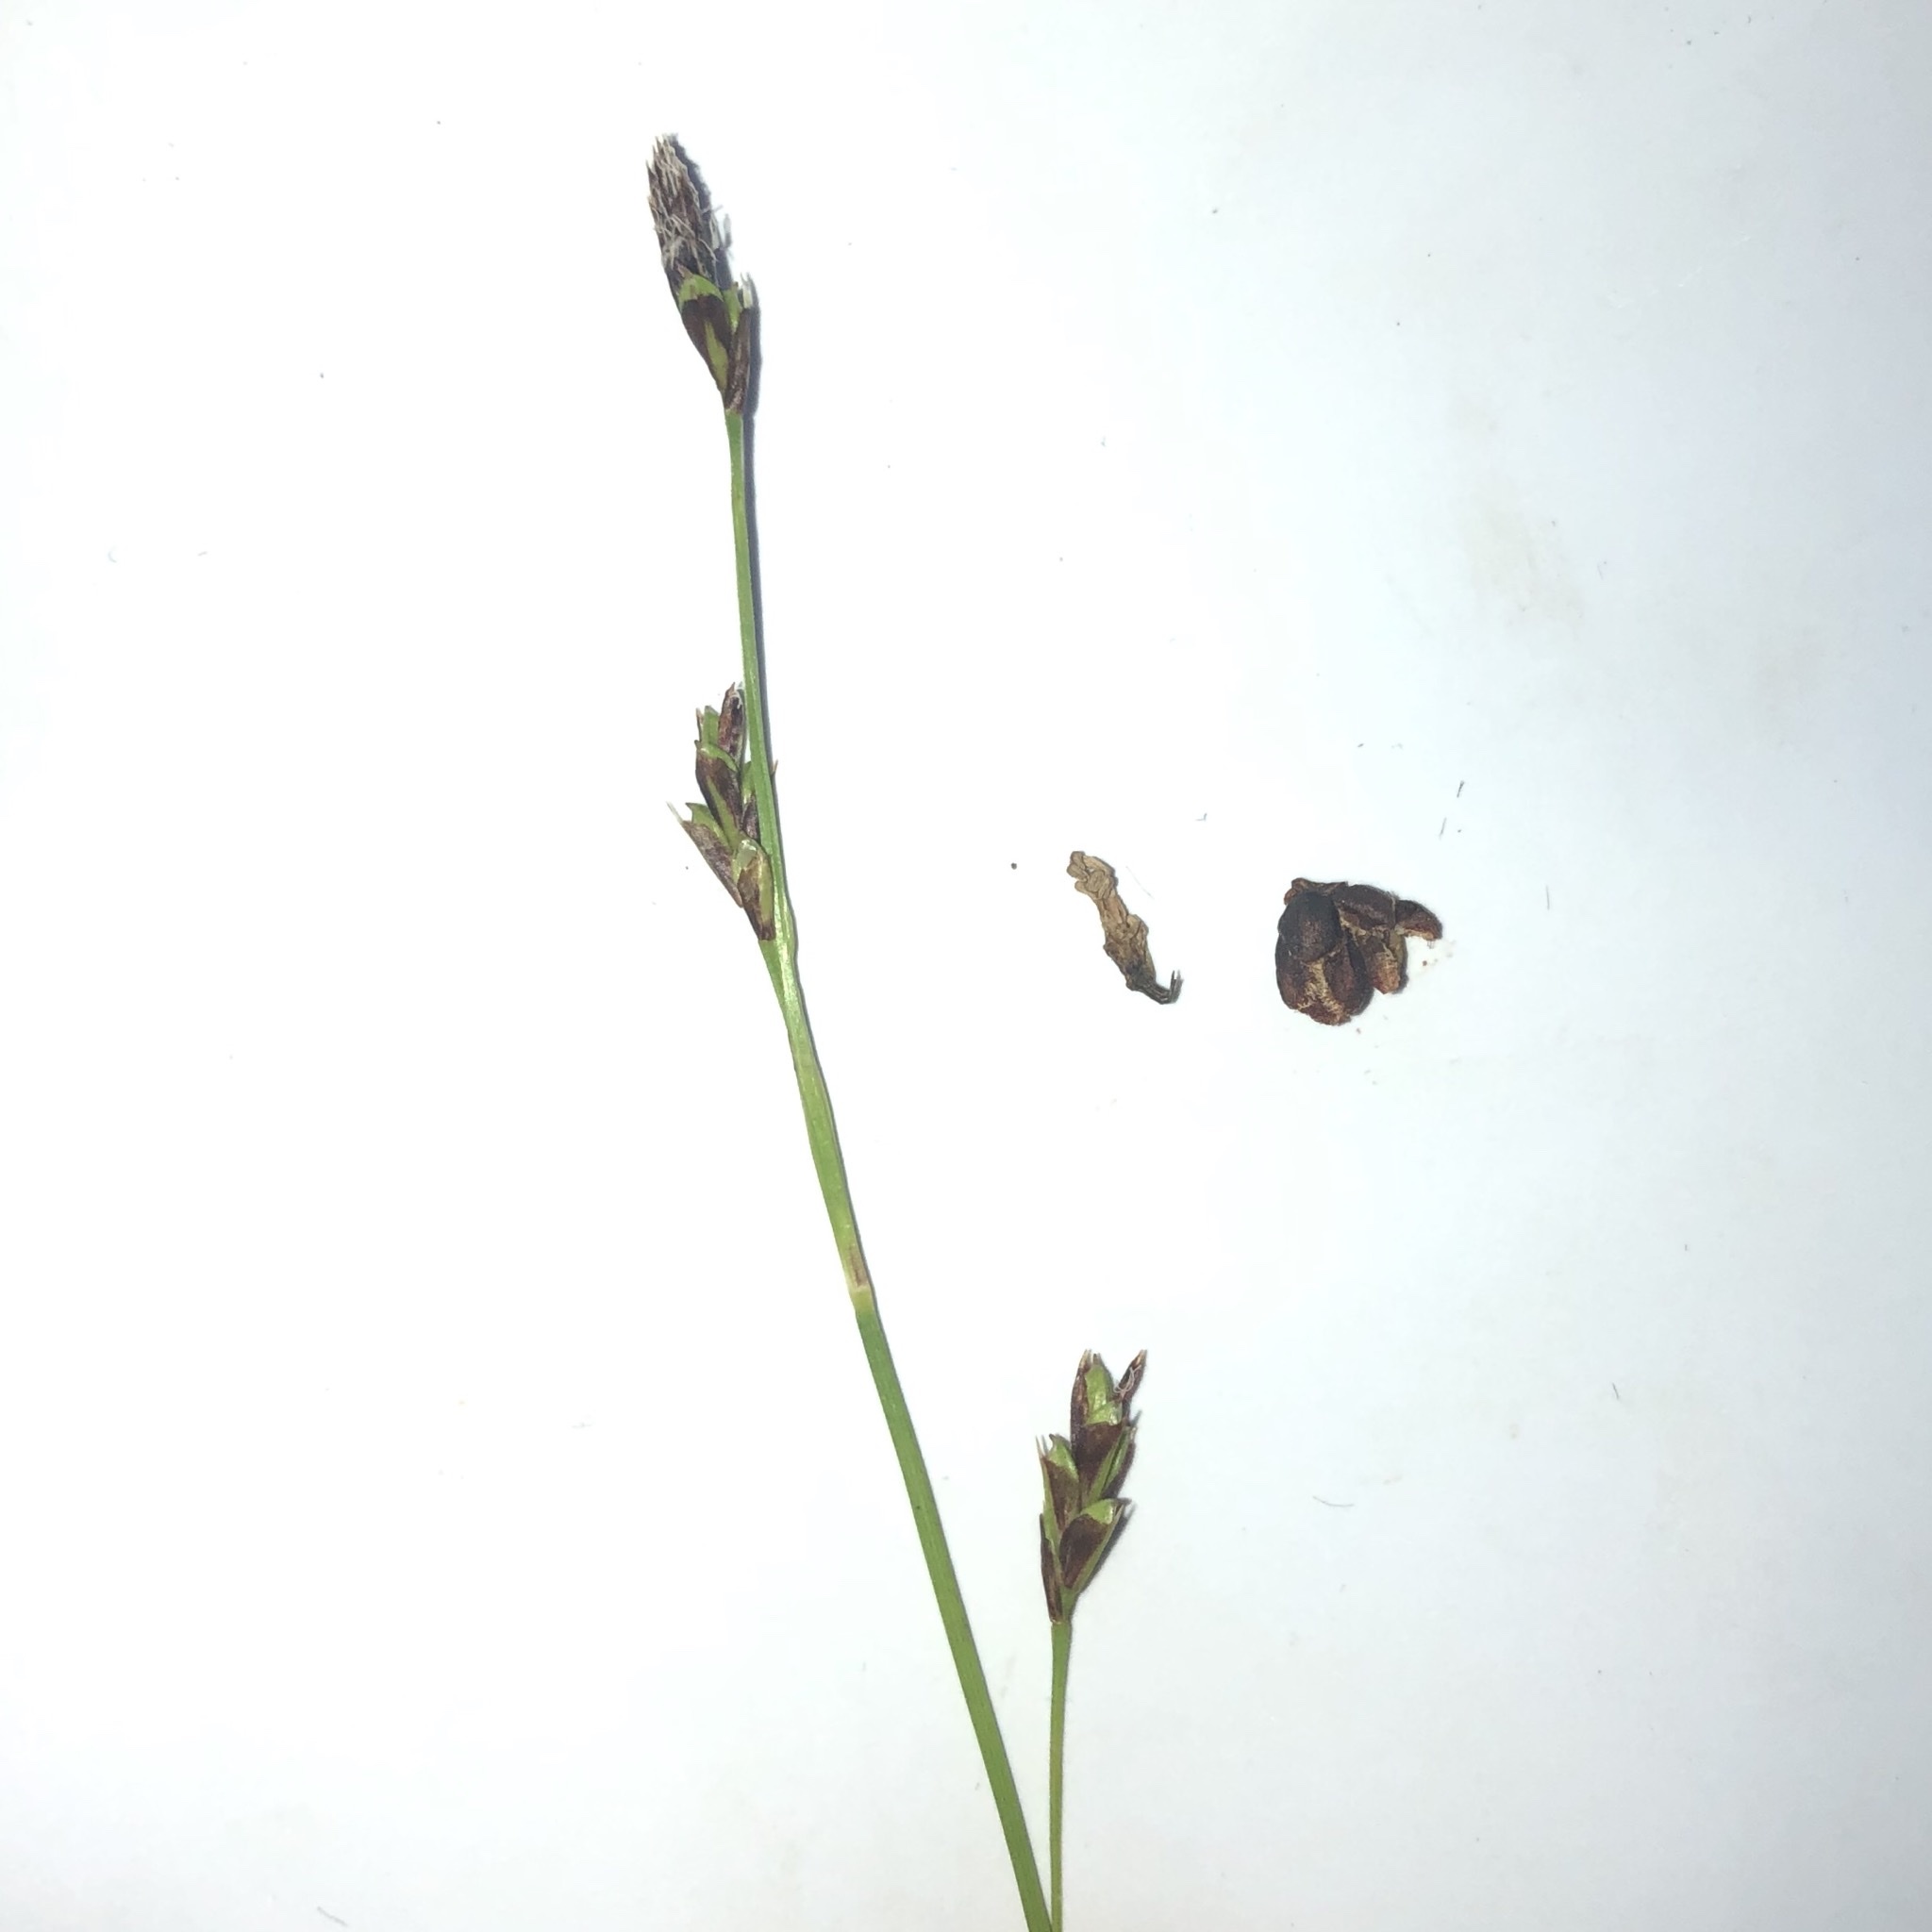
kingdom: Plantae
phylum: Tracheophyta
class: Liliopsida
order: Poales
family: Cyperaceae
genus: Carex
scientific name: Carex pedunculata
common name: Pedunculate sedge
